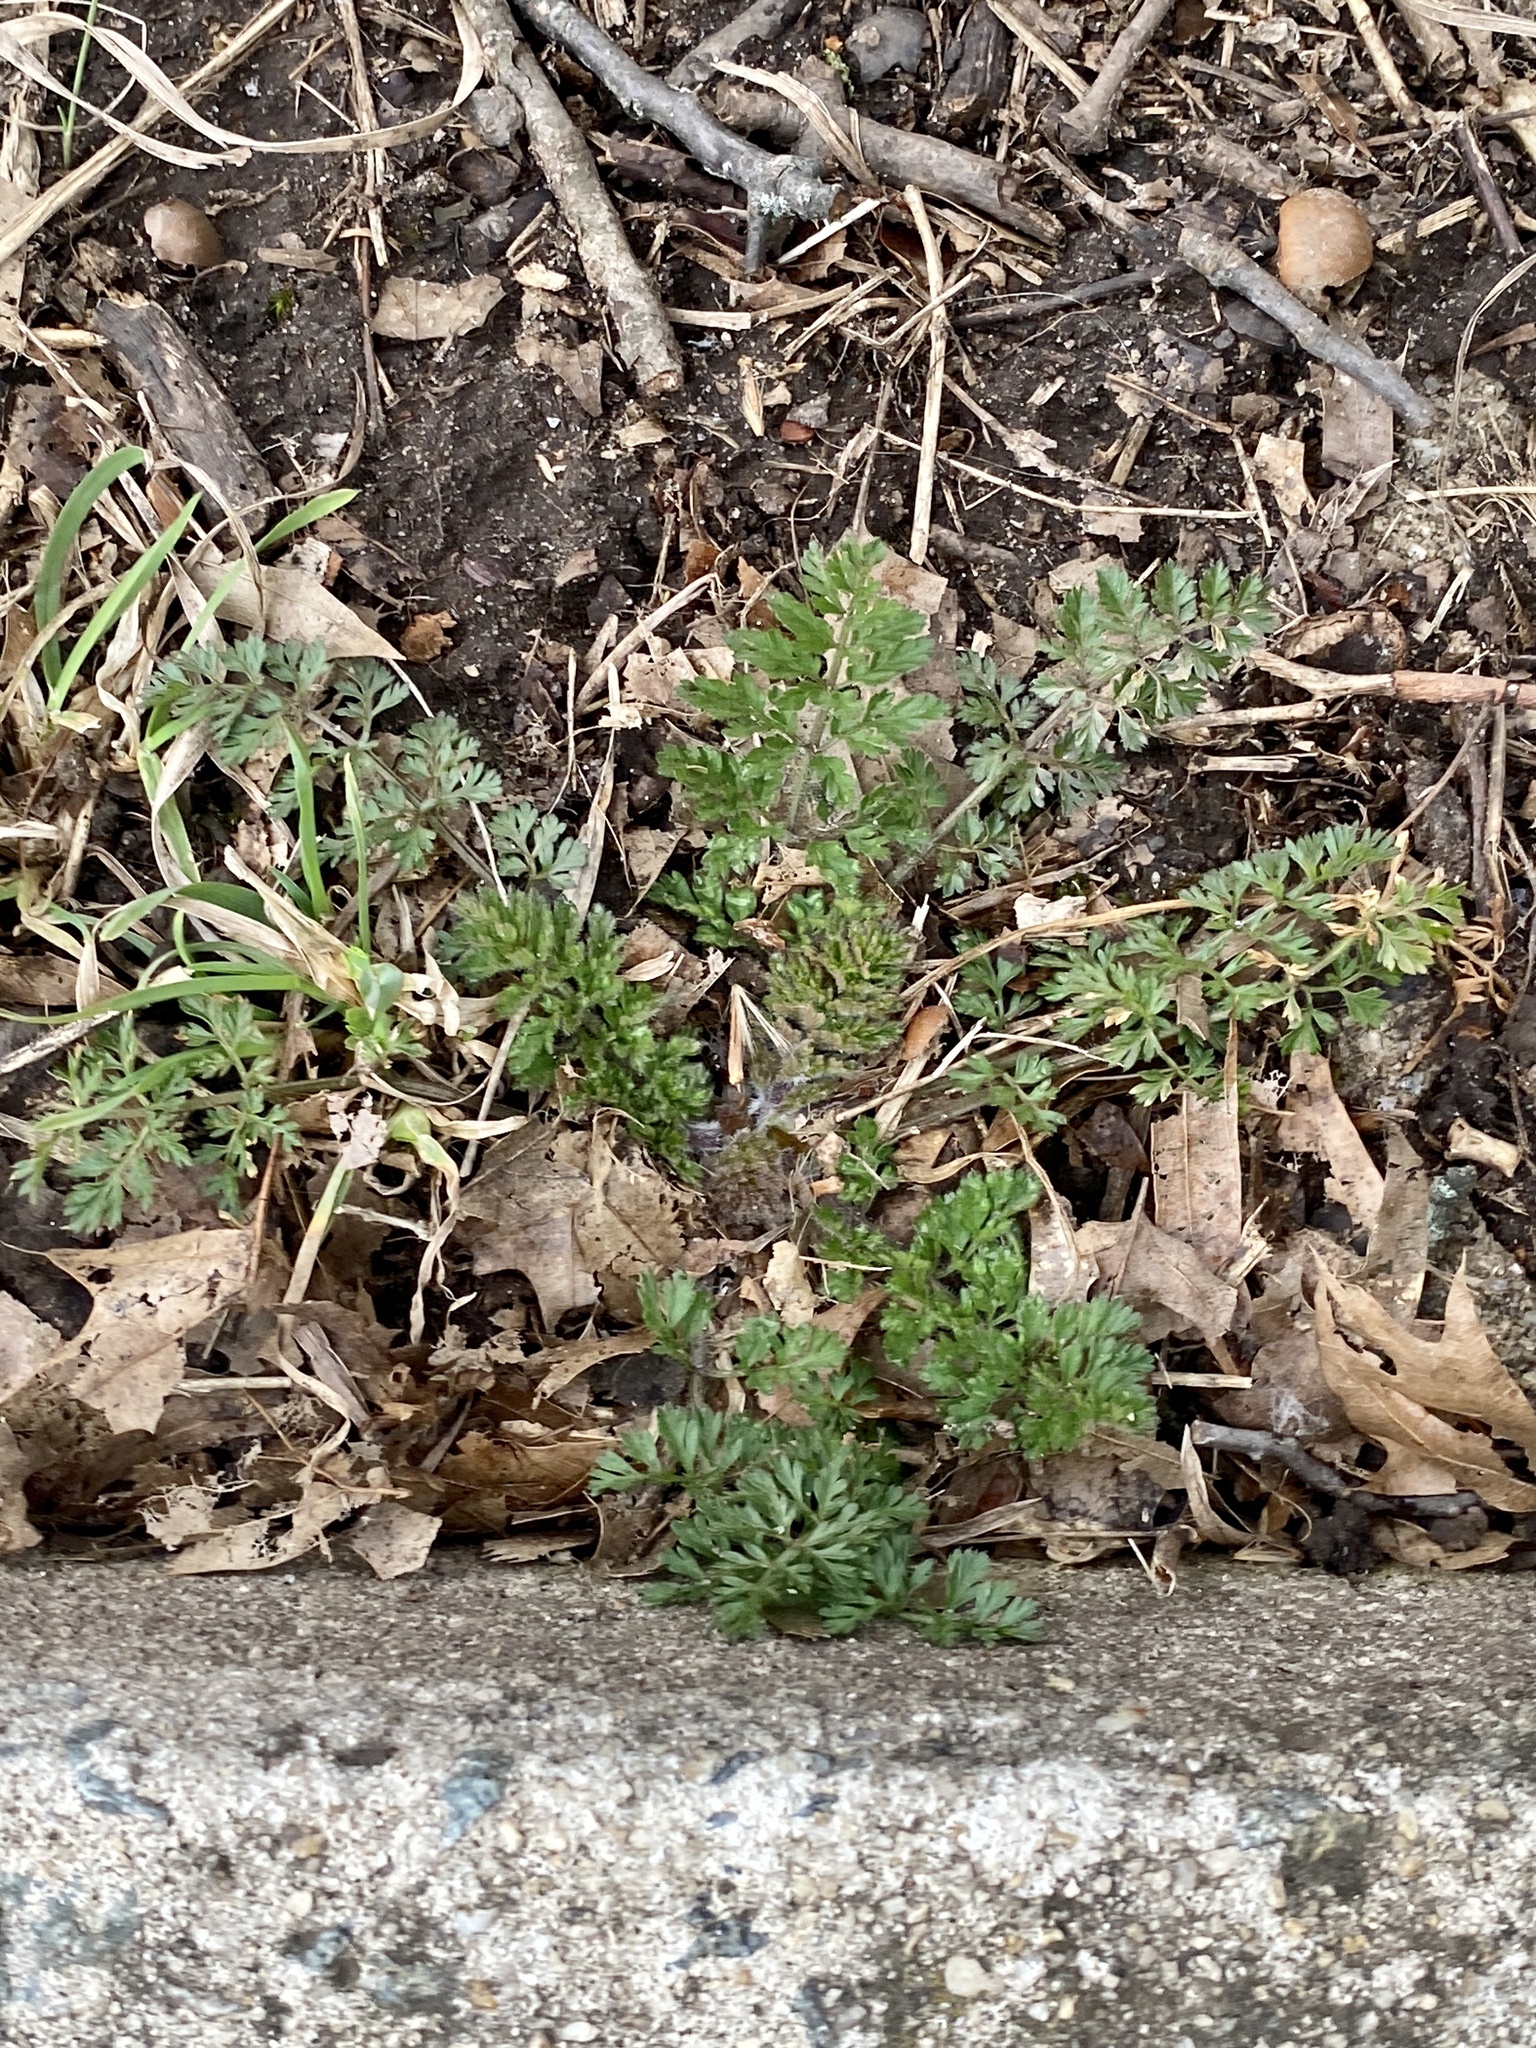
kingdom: Plantae
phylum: Tracheophyta
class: Magnoliopsida
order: Apiales
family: Apiaceae
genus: Daucus
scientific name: Daucus carota
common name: Wild carrot
